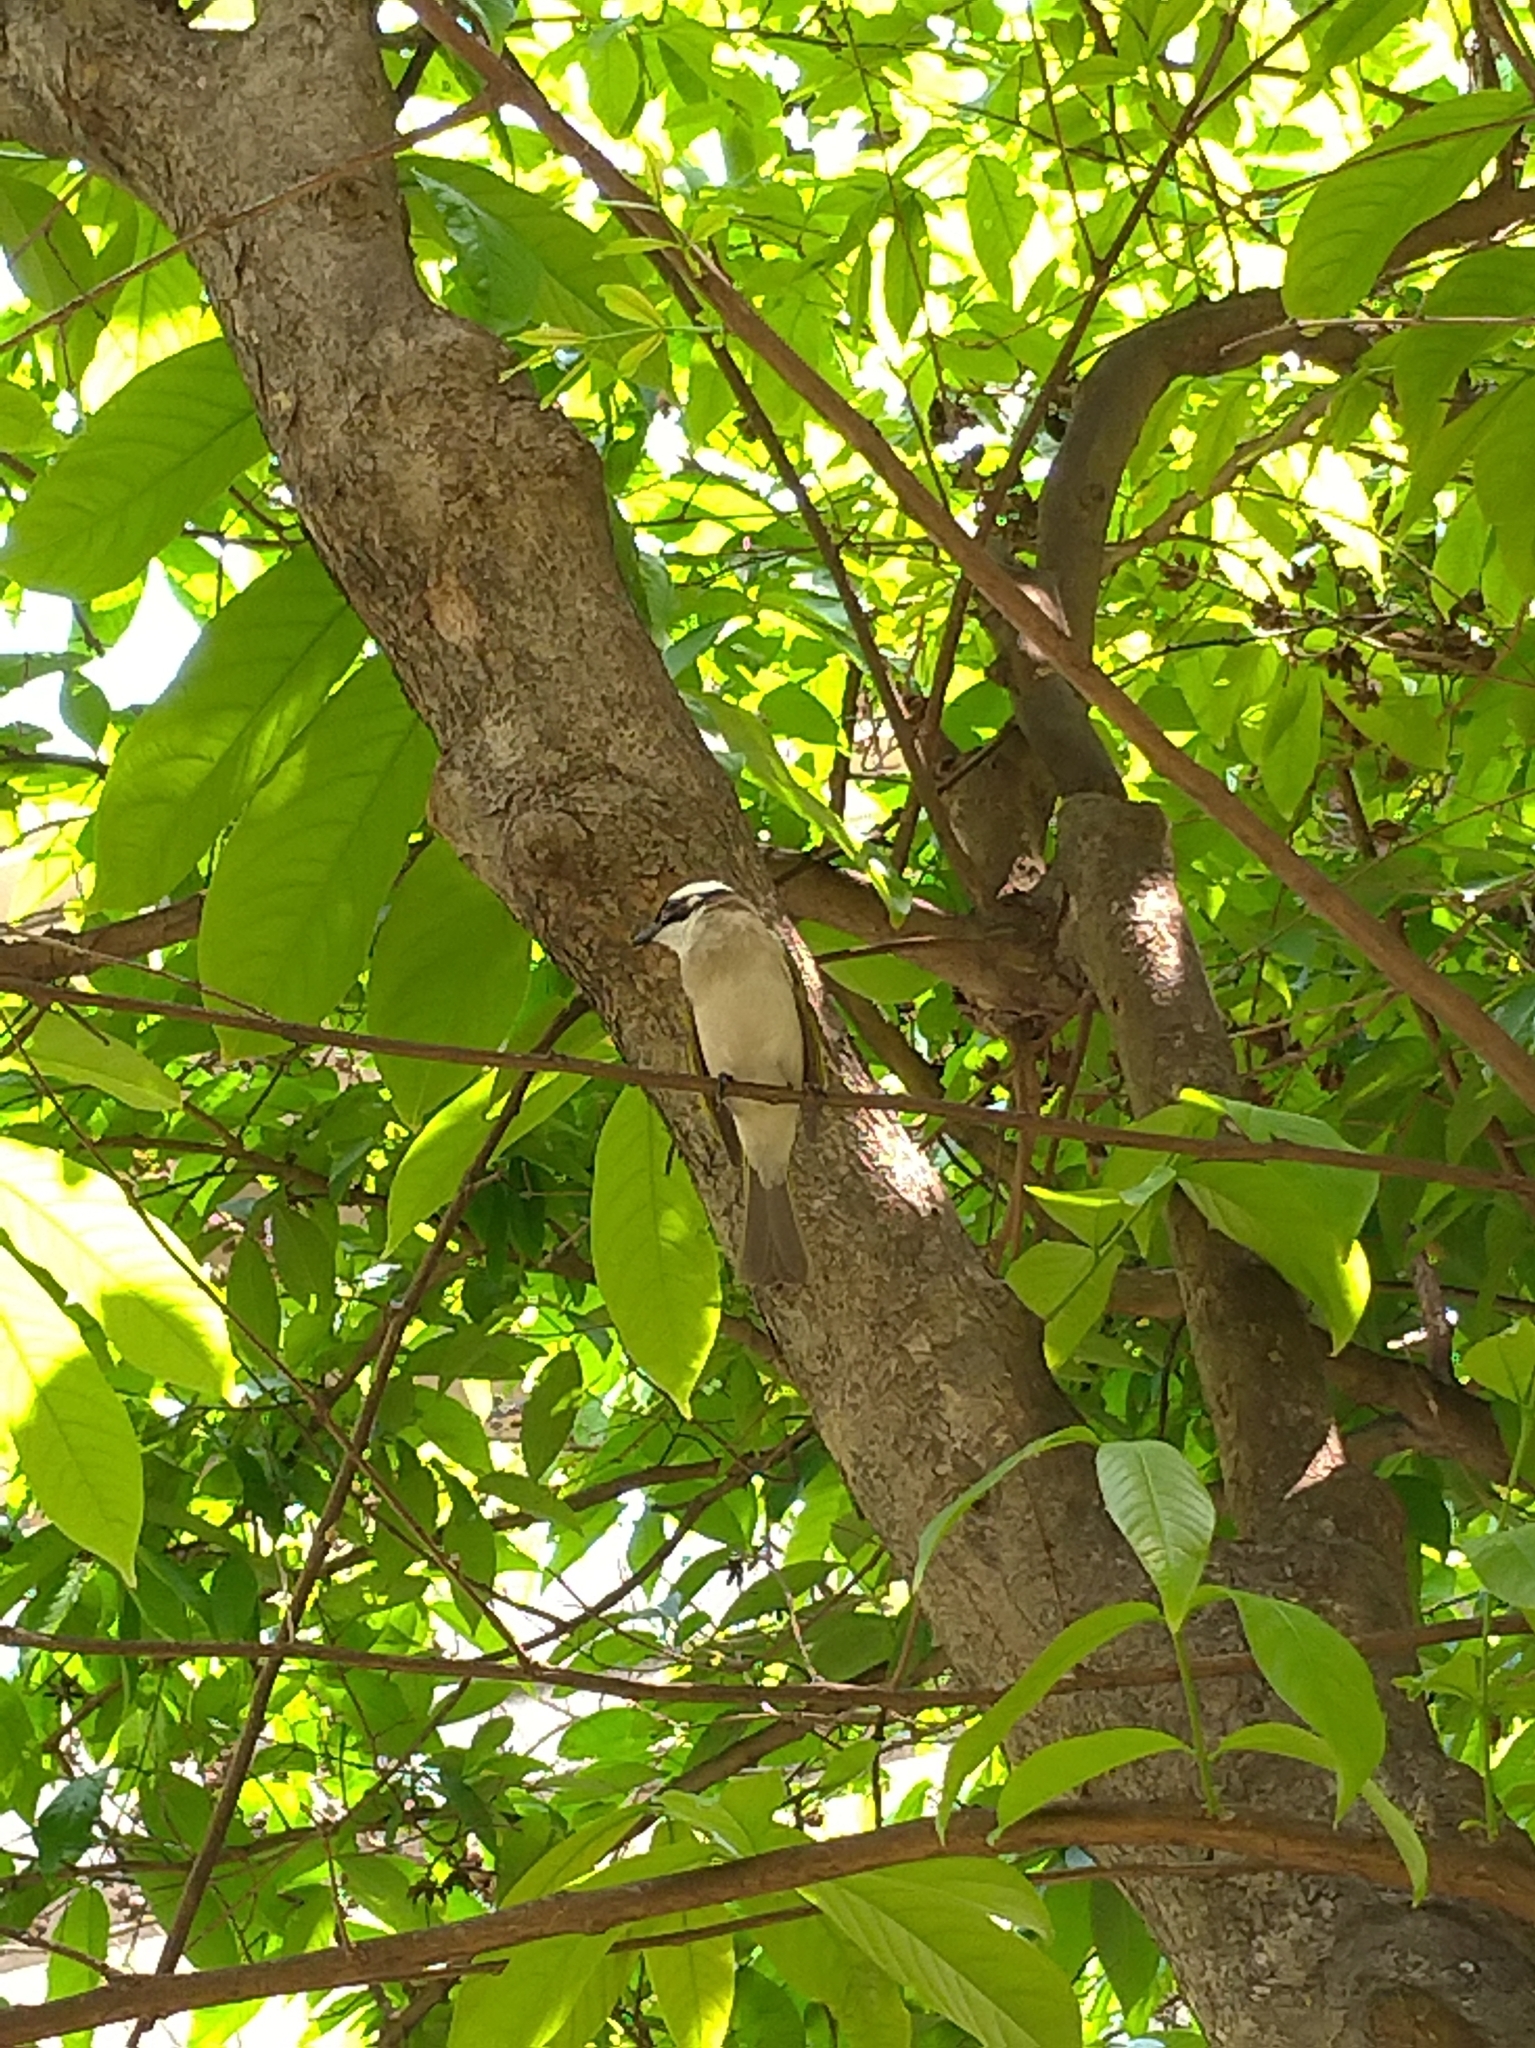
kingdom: Animalia
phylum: Chordata
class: Aves
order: Passeriformes
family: Pycnonotidae
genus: Pycnonotus
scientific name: Pycnonotus sinensis
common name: Light-vented bulbul
